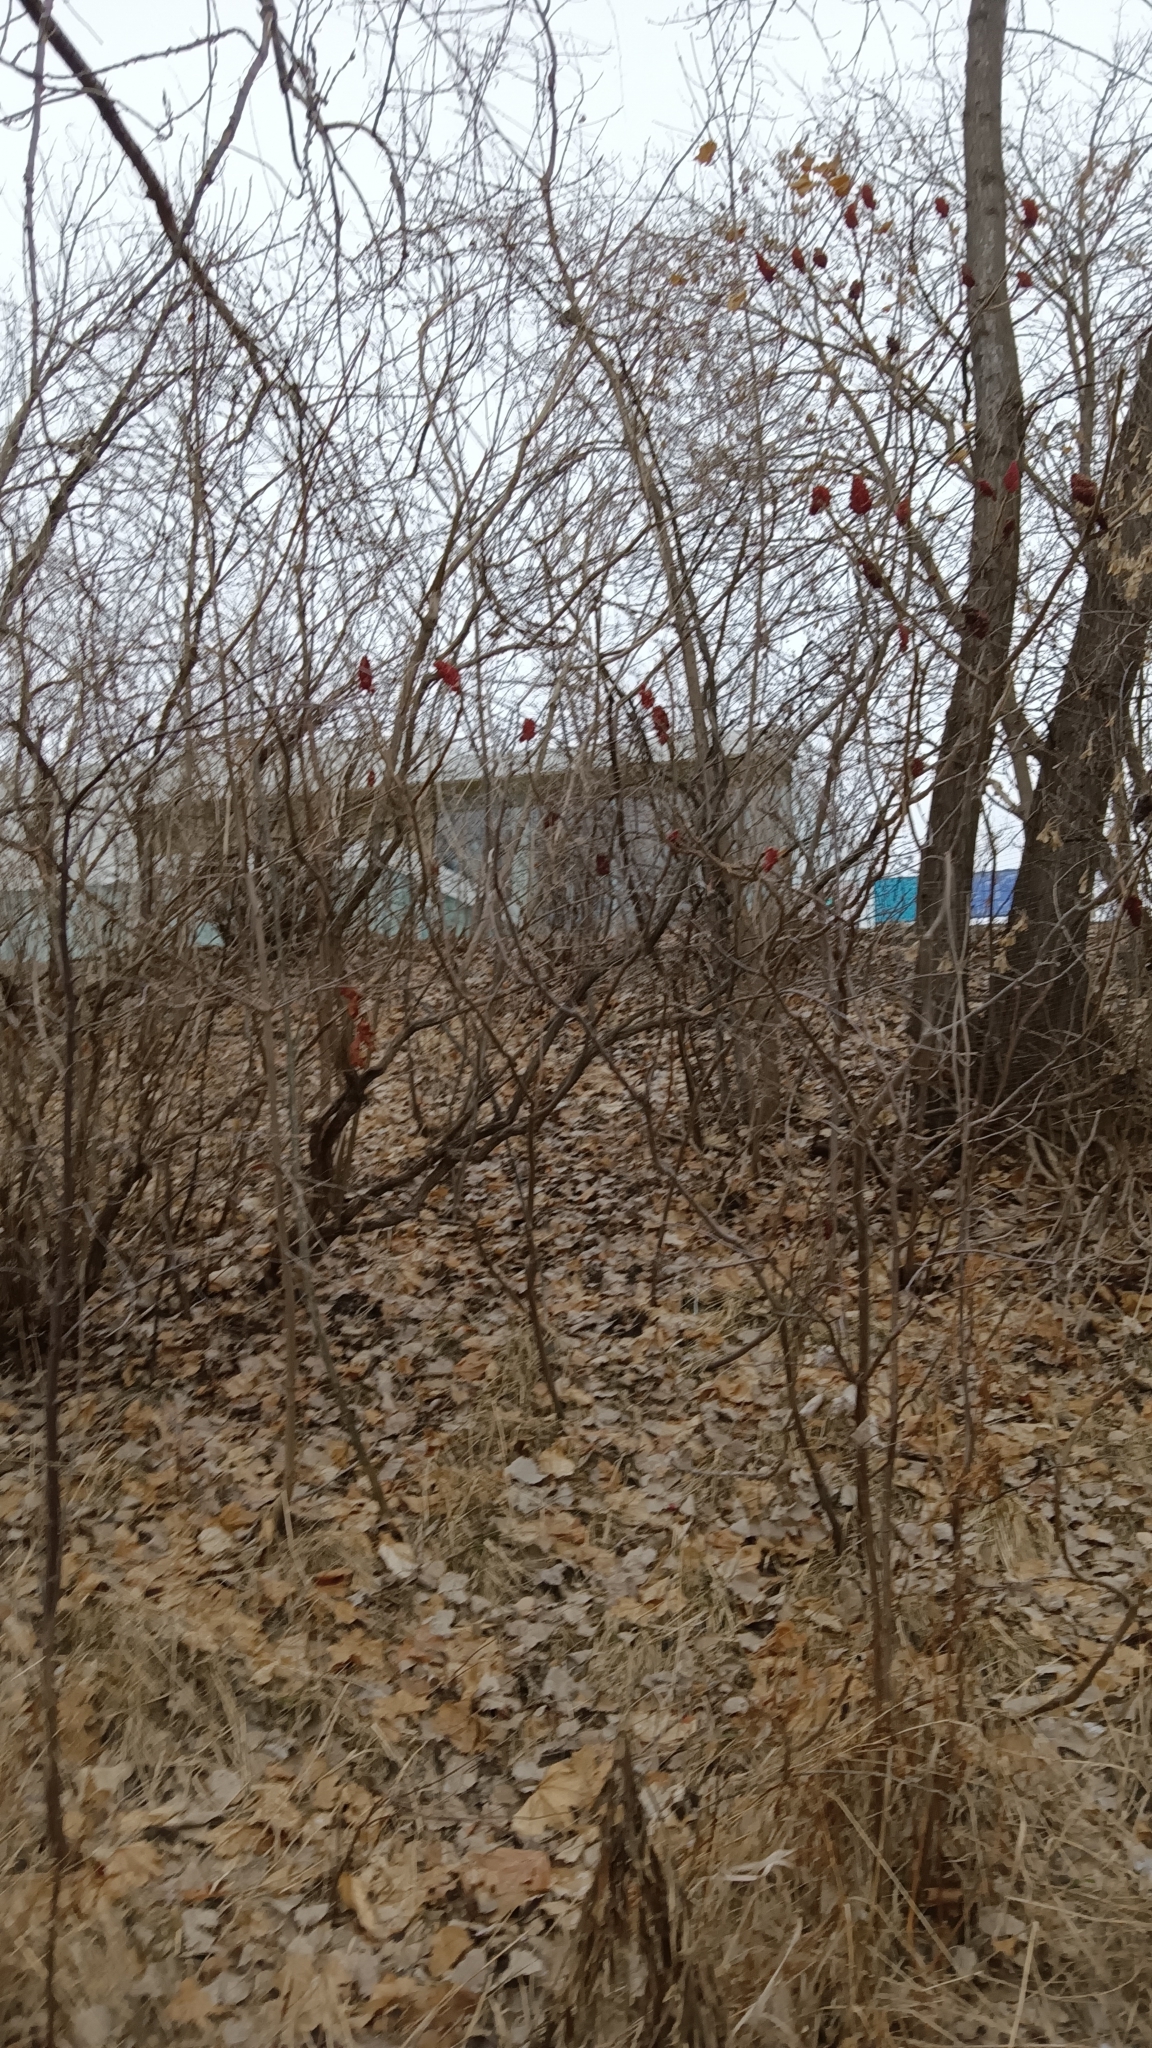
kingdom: Plantae
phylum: Tracheophyta
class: Magnoliopsida
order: Sapindales
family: Anacardiaceae
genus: Rhus
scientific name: Rhus typhina
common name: Staghorn sumac
